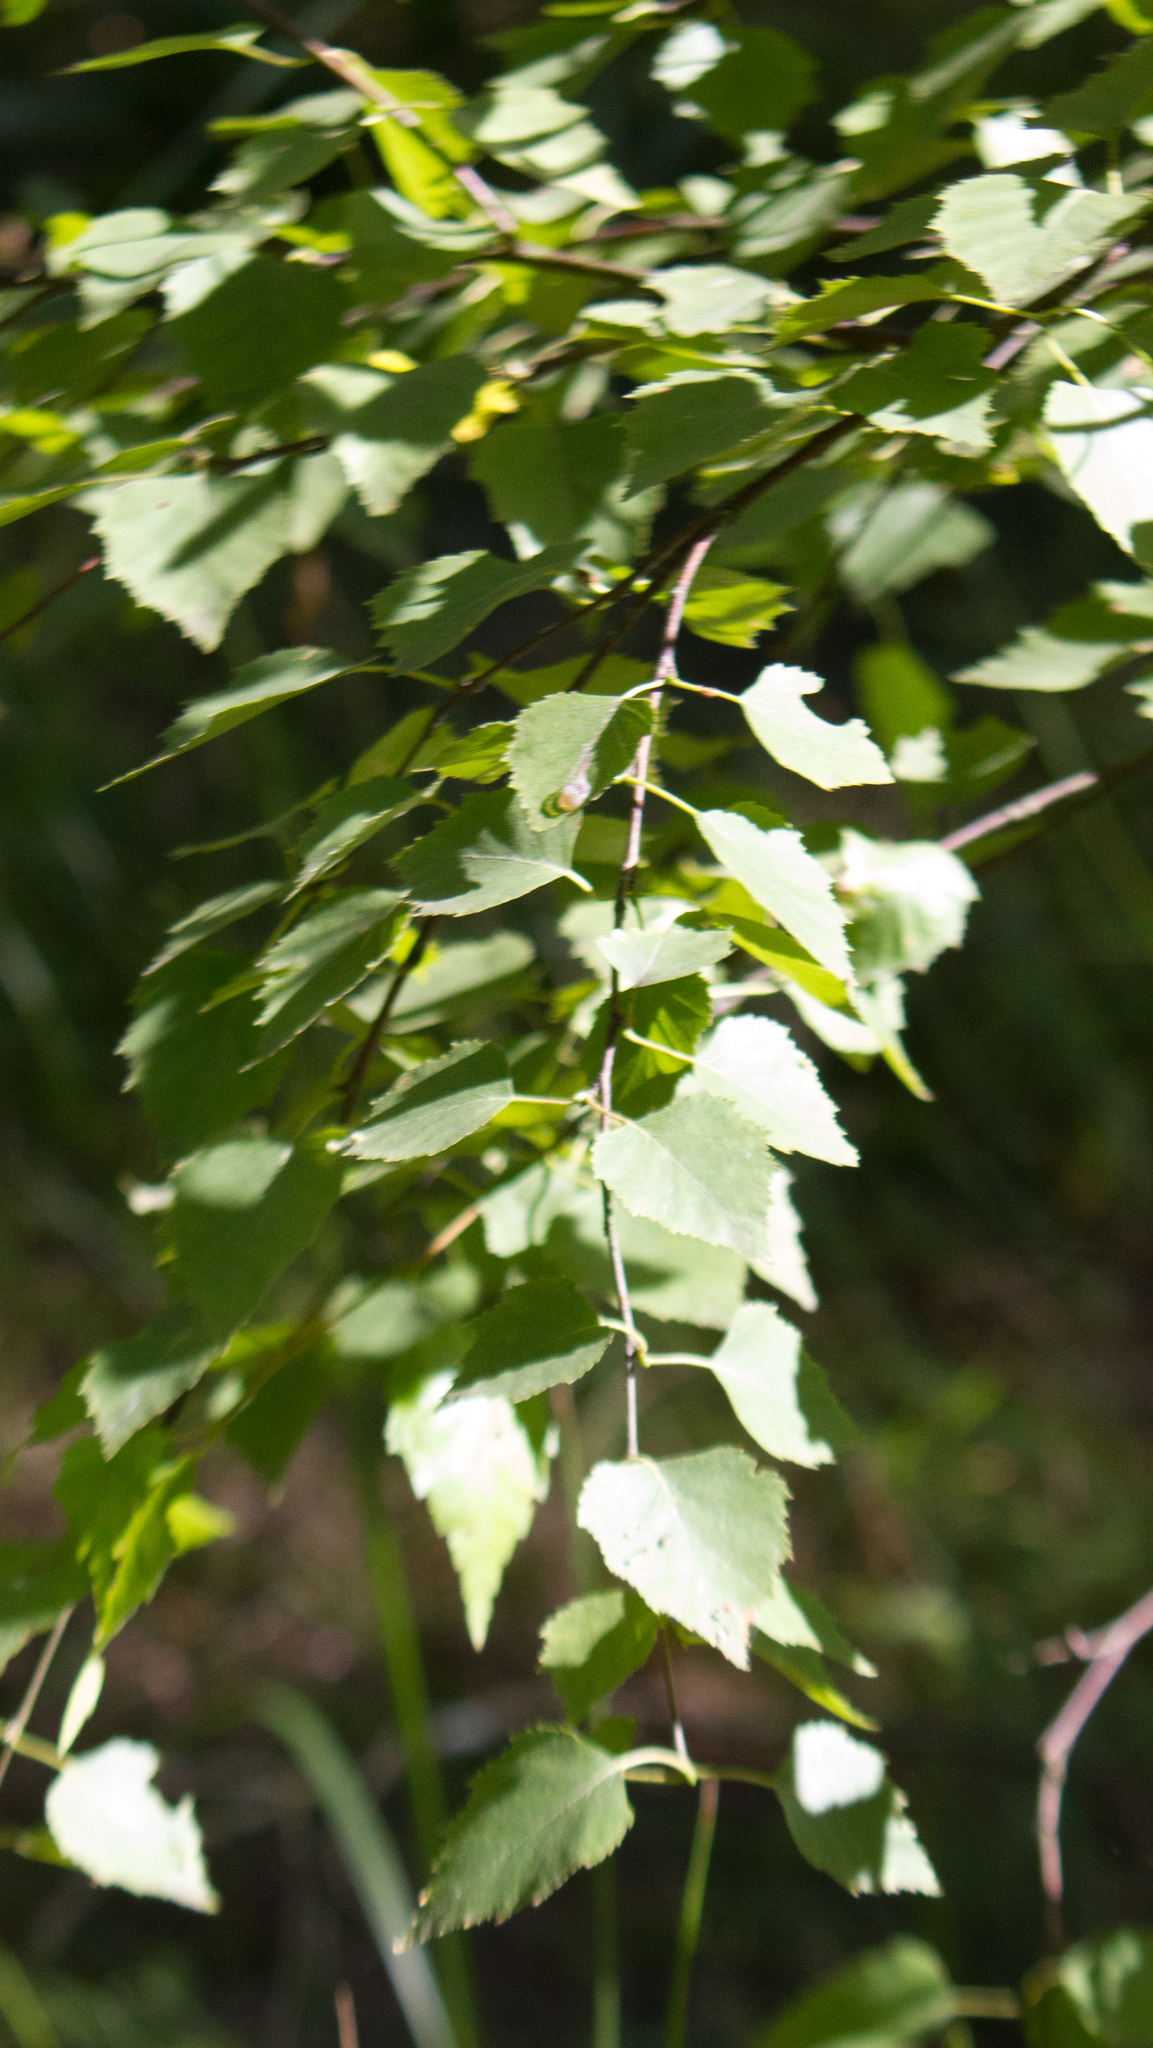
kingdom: Plantae
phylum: Tracheophyta
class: Magnoliopsida
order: Fagales
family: Betulaceae
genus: Betula
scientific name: Betula pendula
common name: Silver birch
